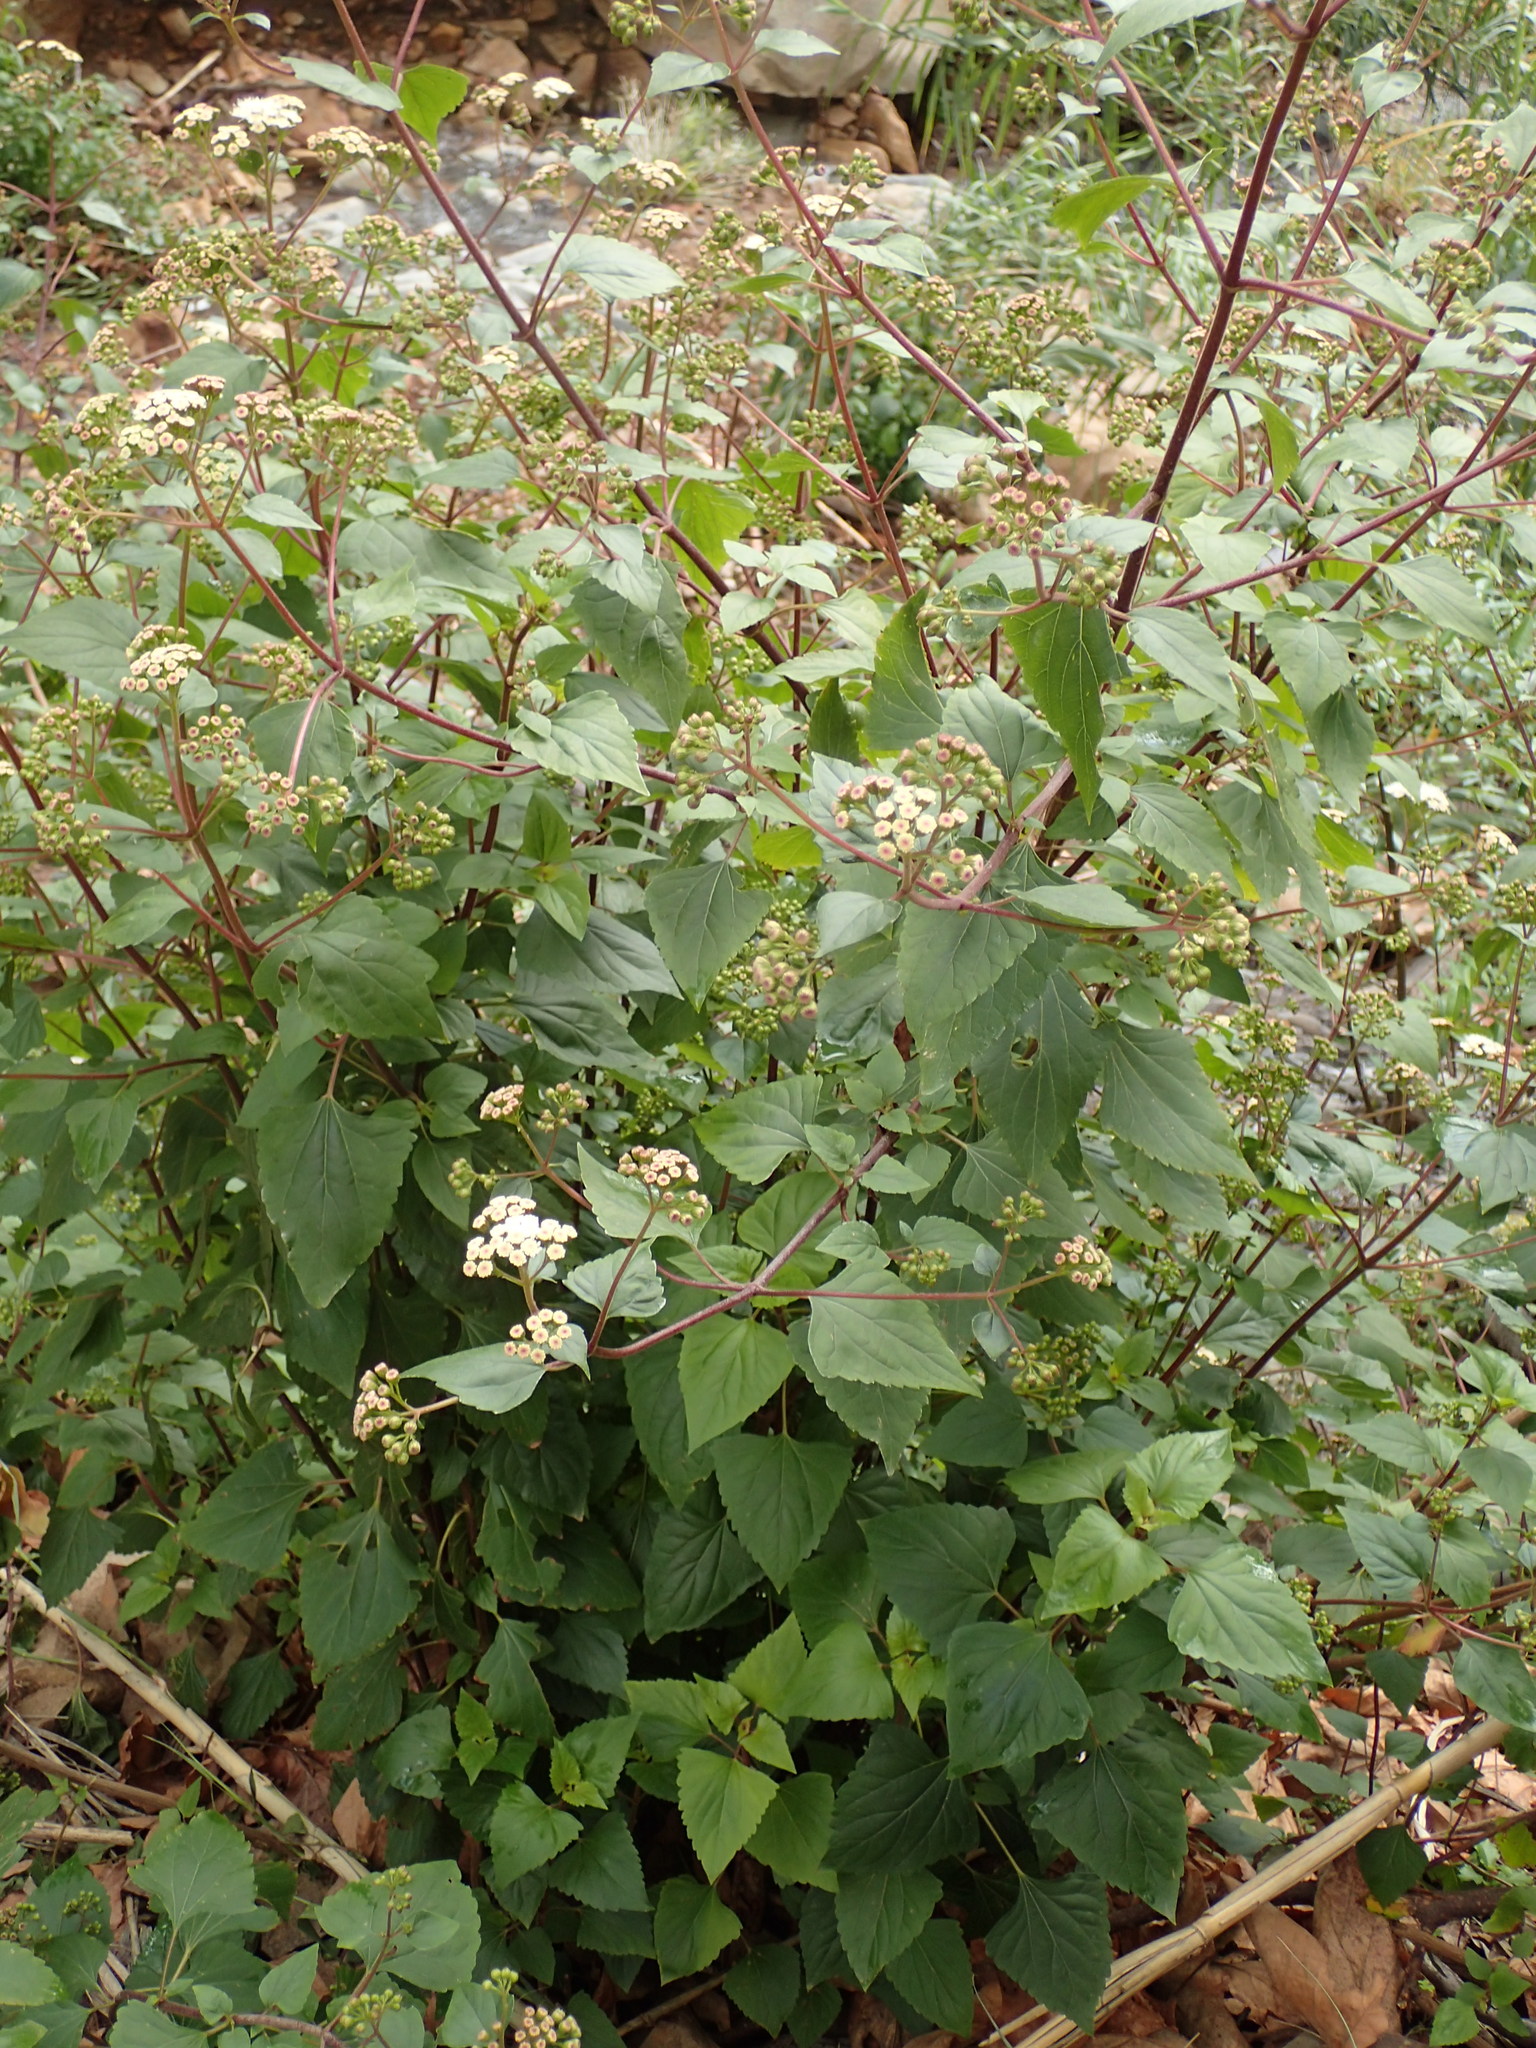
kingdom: Plantae
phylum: Tracheophyta
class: Magnoliopsida
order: Asterales
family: Asteraceae
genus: Ageratina
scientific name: Ageratina adenophora
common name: Sticky snakeroot
